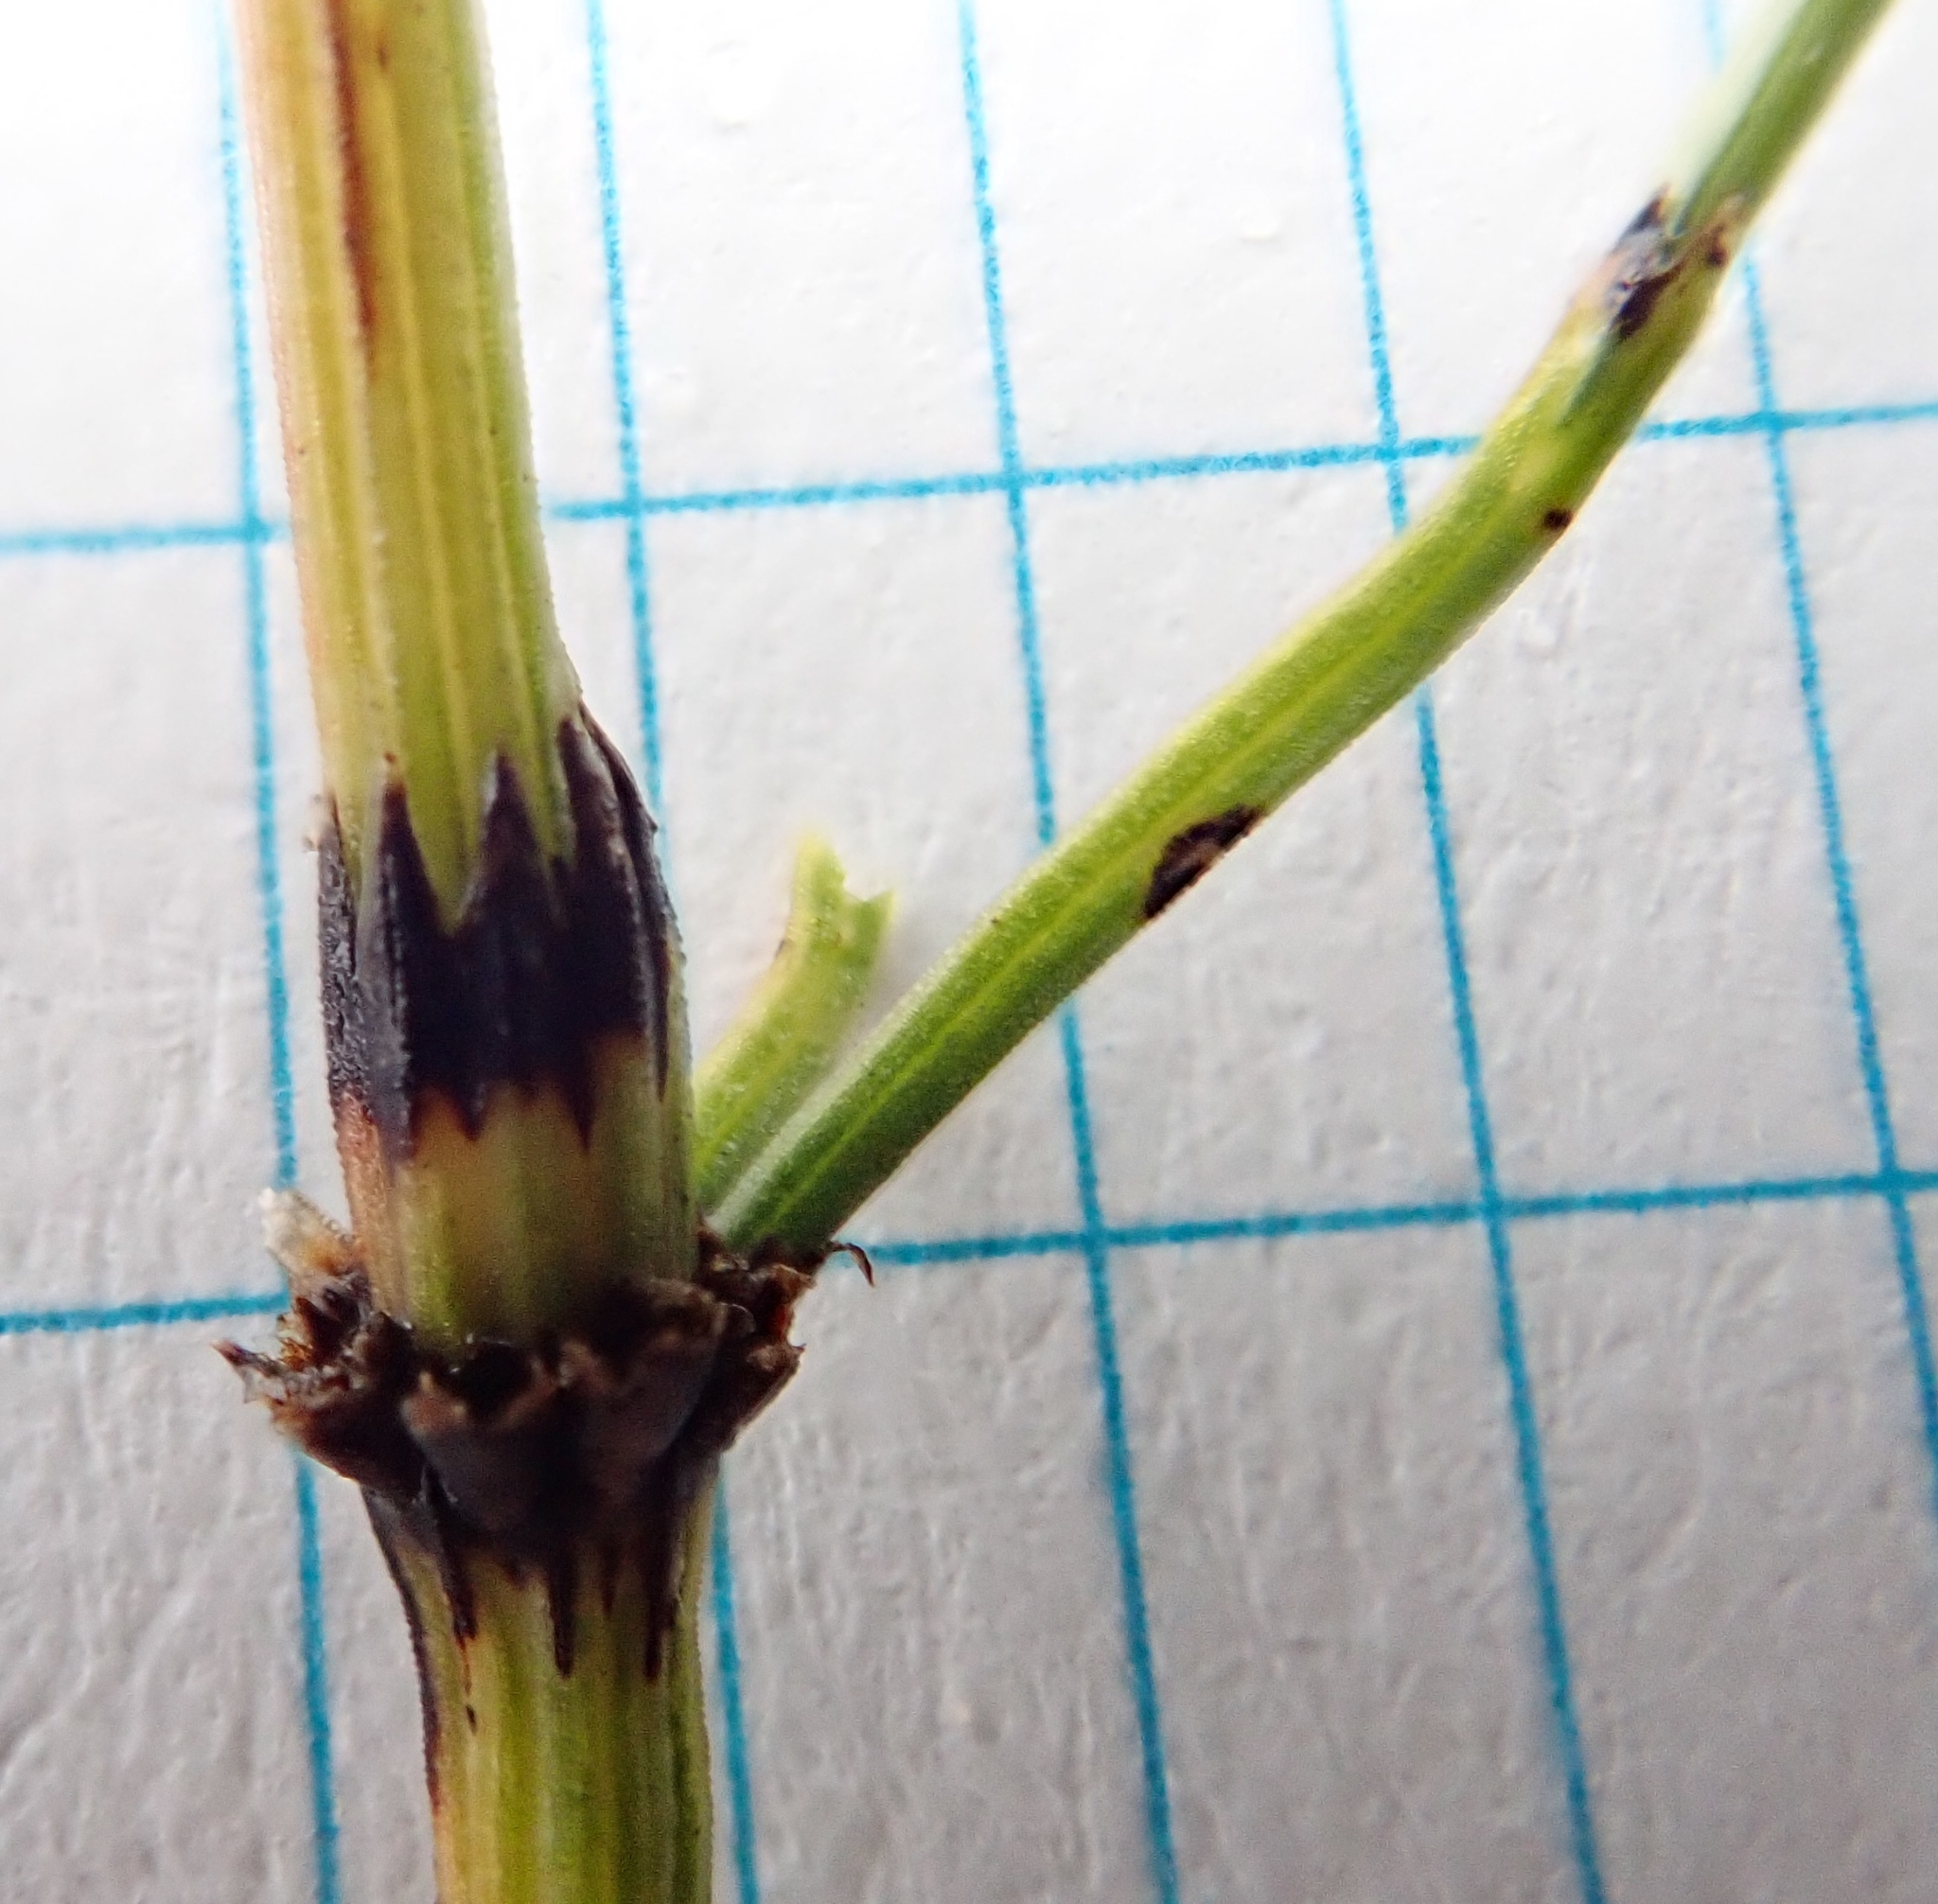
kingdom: Plantae
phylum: Tracheophyta
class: Polypodiopsida
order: Equisetales
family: Equisetaceae
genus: Equisetum
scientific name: Equisetum arvense
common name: Field horsetail
